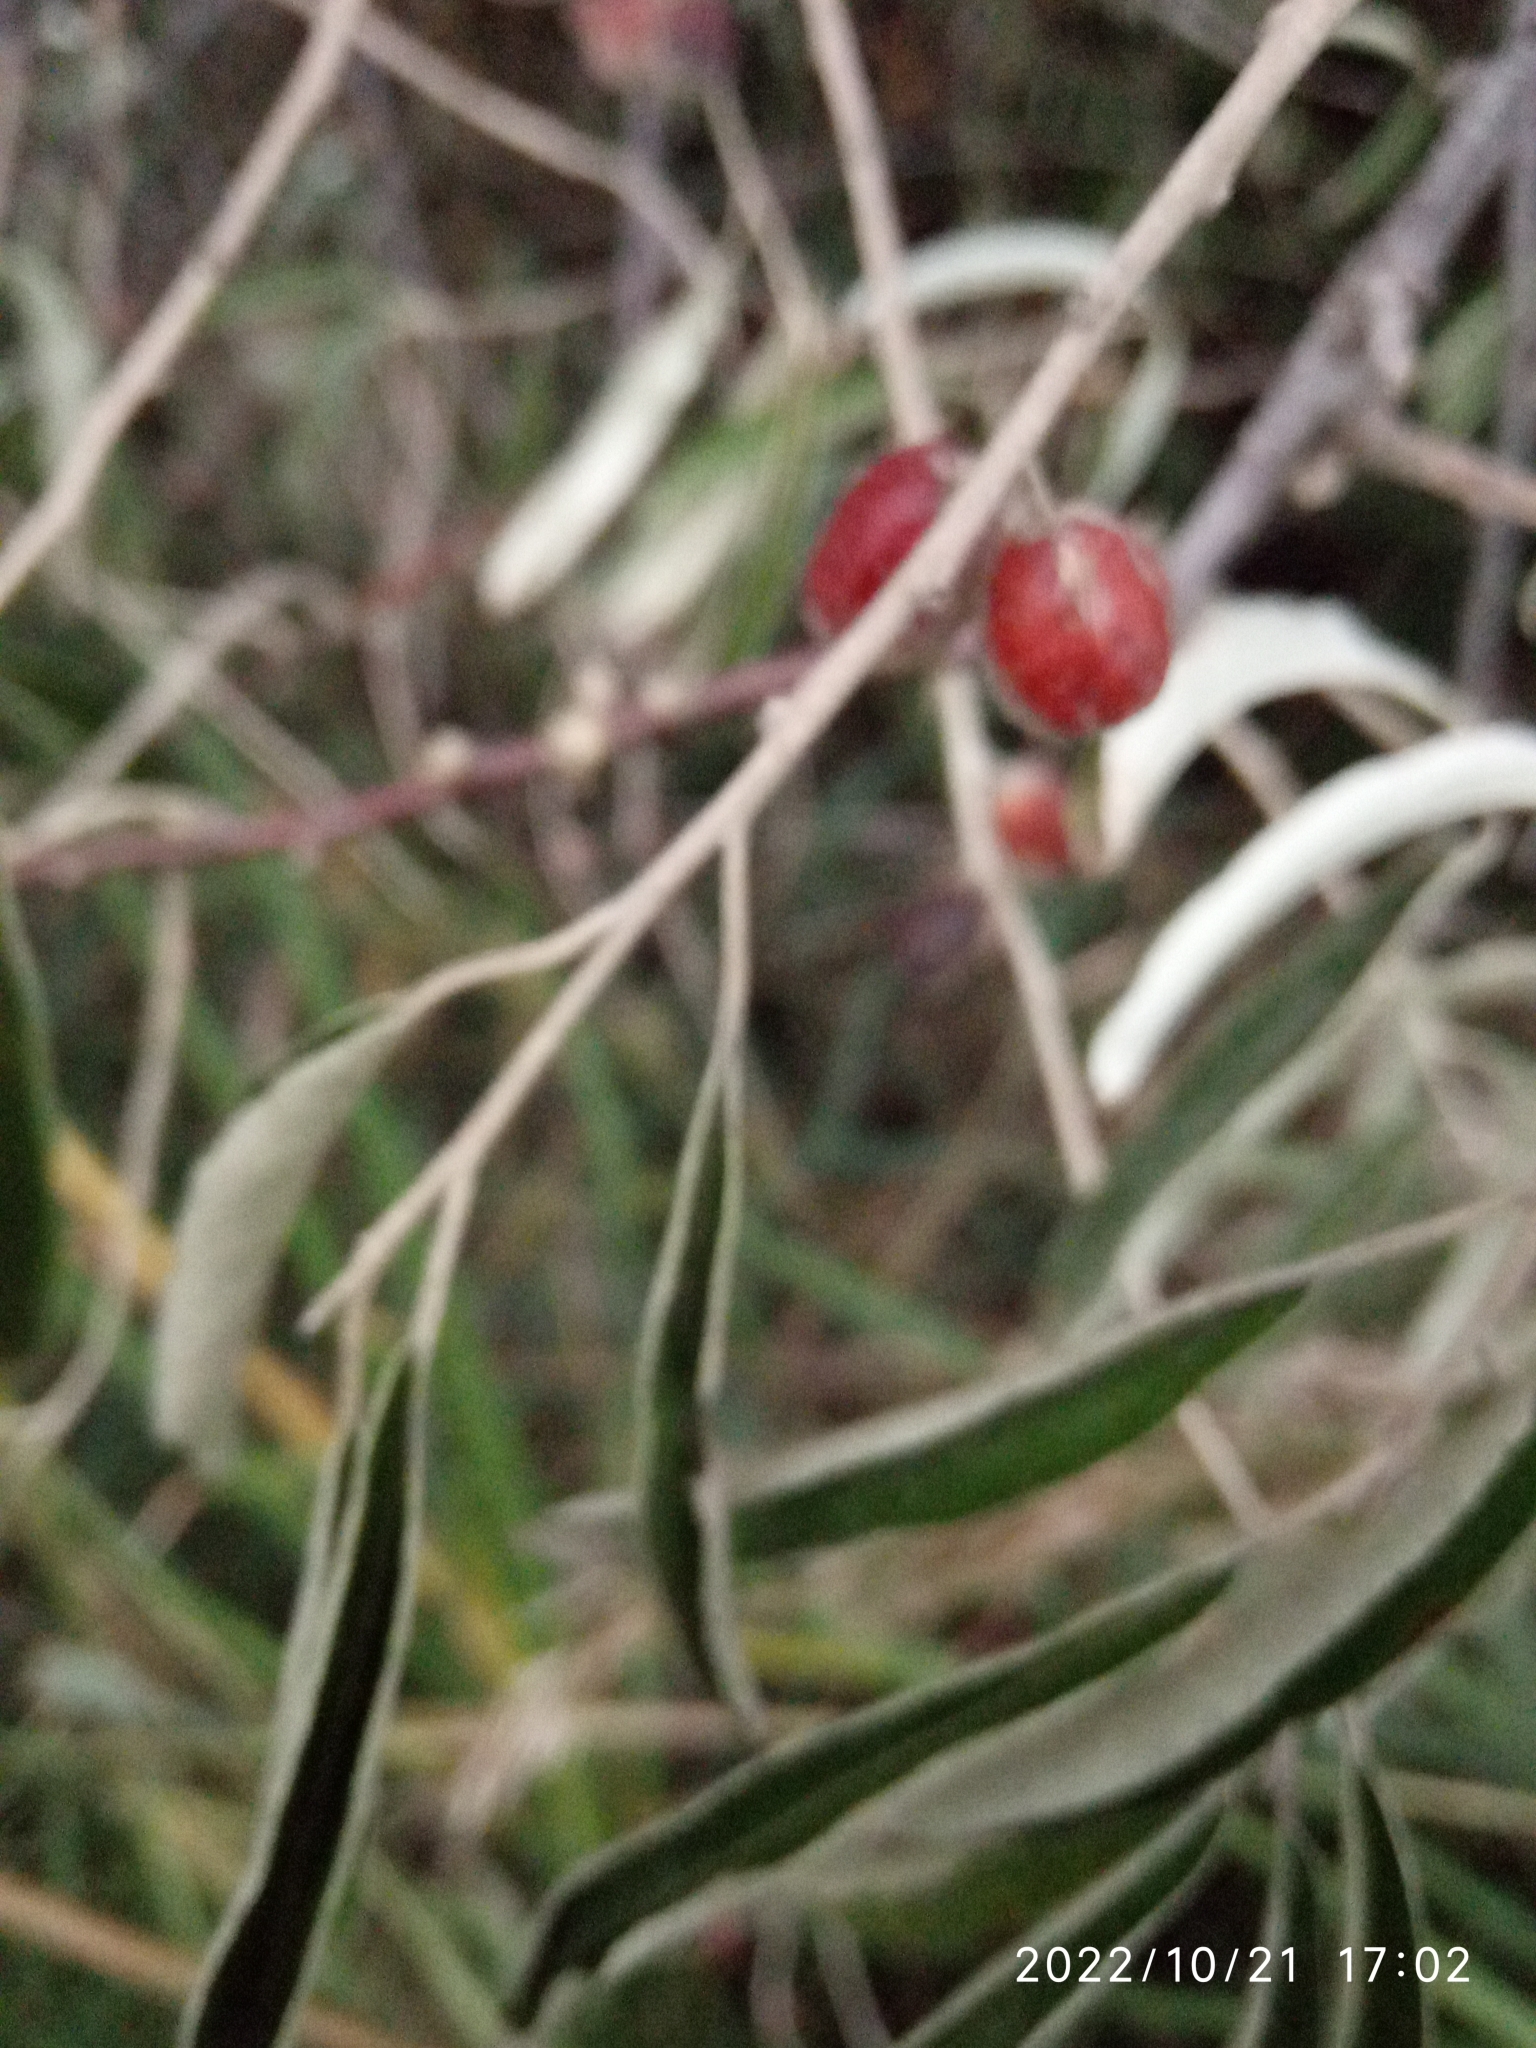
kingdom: Plantae
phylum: Tracheophyta
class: Magnoliopsida
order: Rosales
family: Elaeagnaceae
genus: Elaeagnus
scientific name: Elaeagnus angustifolia
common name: Russian olive
